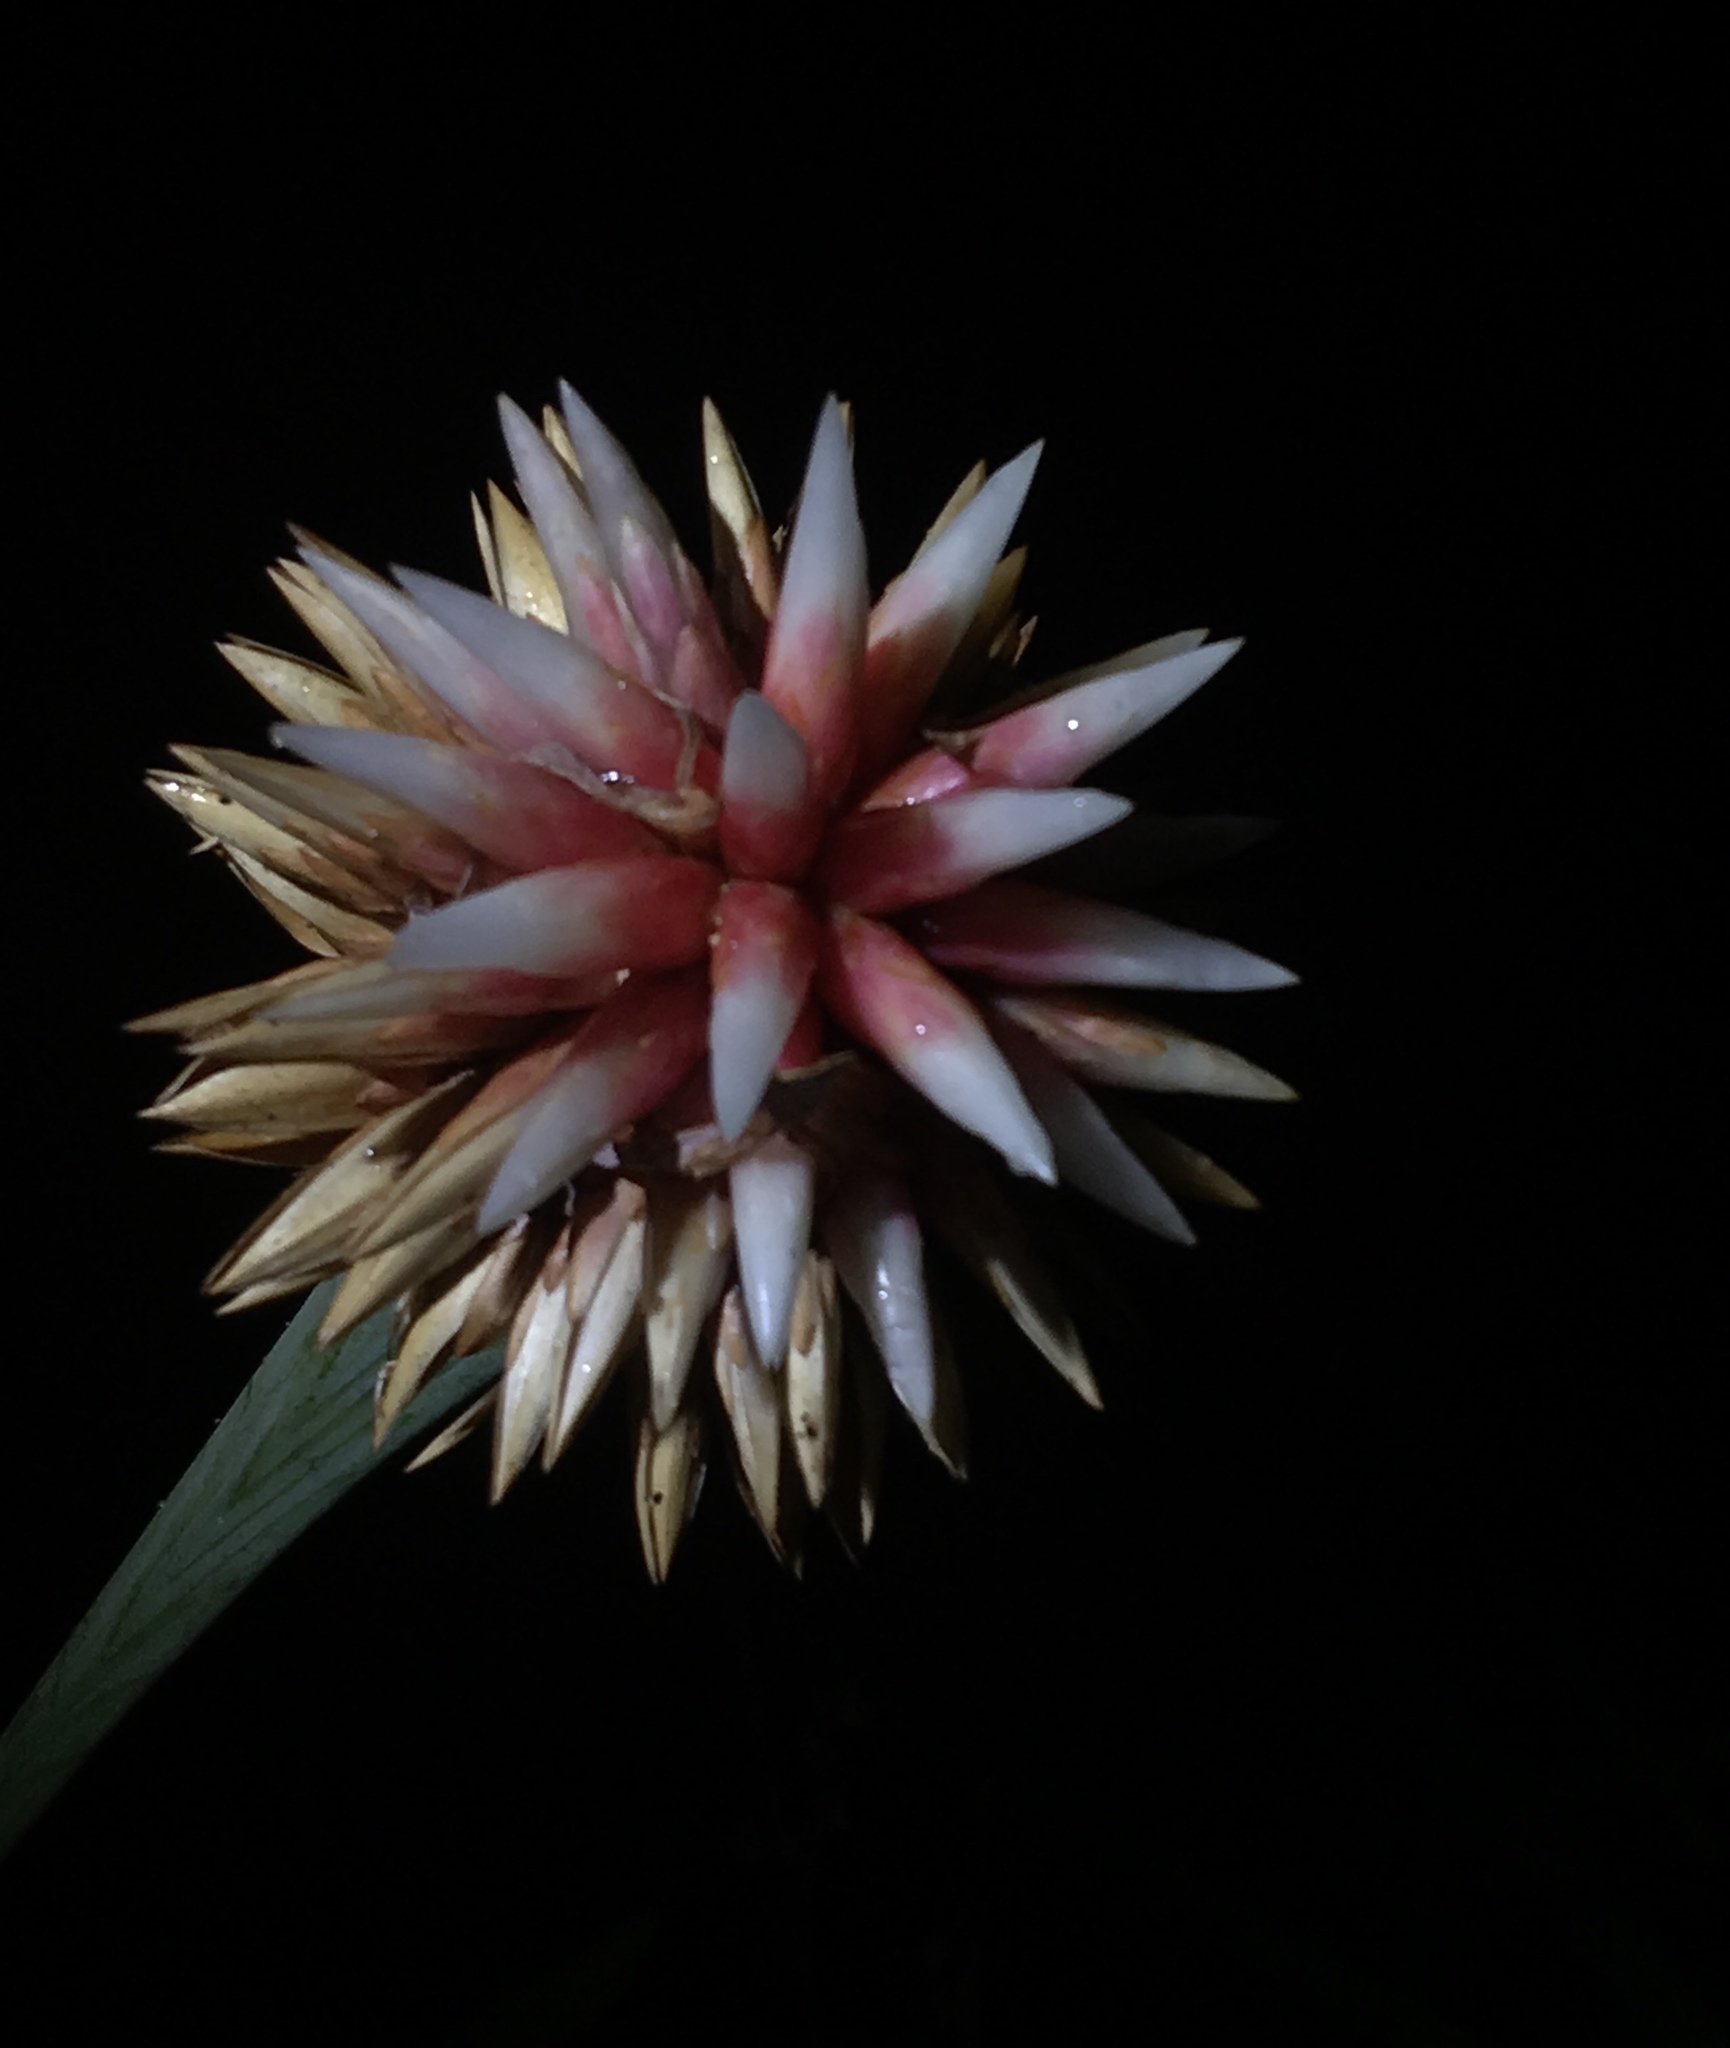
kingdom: Plantae
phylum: Tracheophyta
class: Liliopsida
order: Poales
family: Rapateaceae
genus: Guacamaya
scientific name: Guacamaya superba
